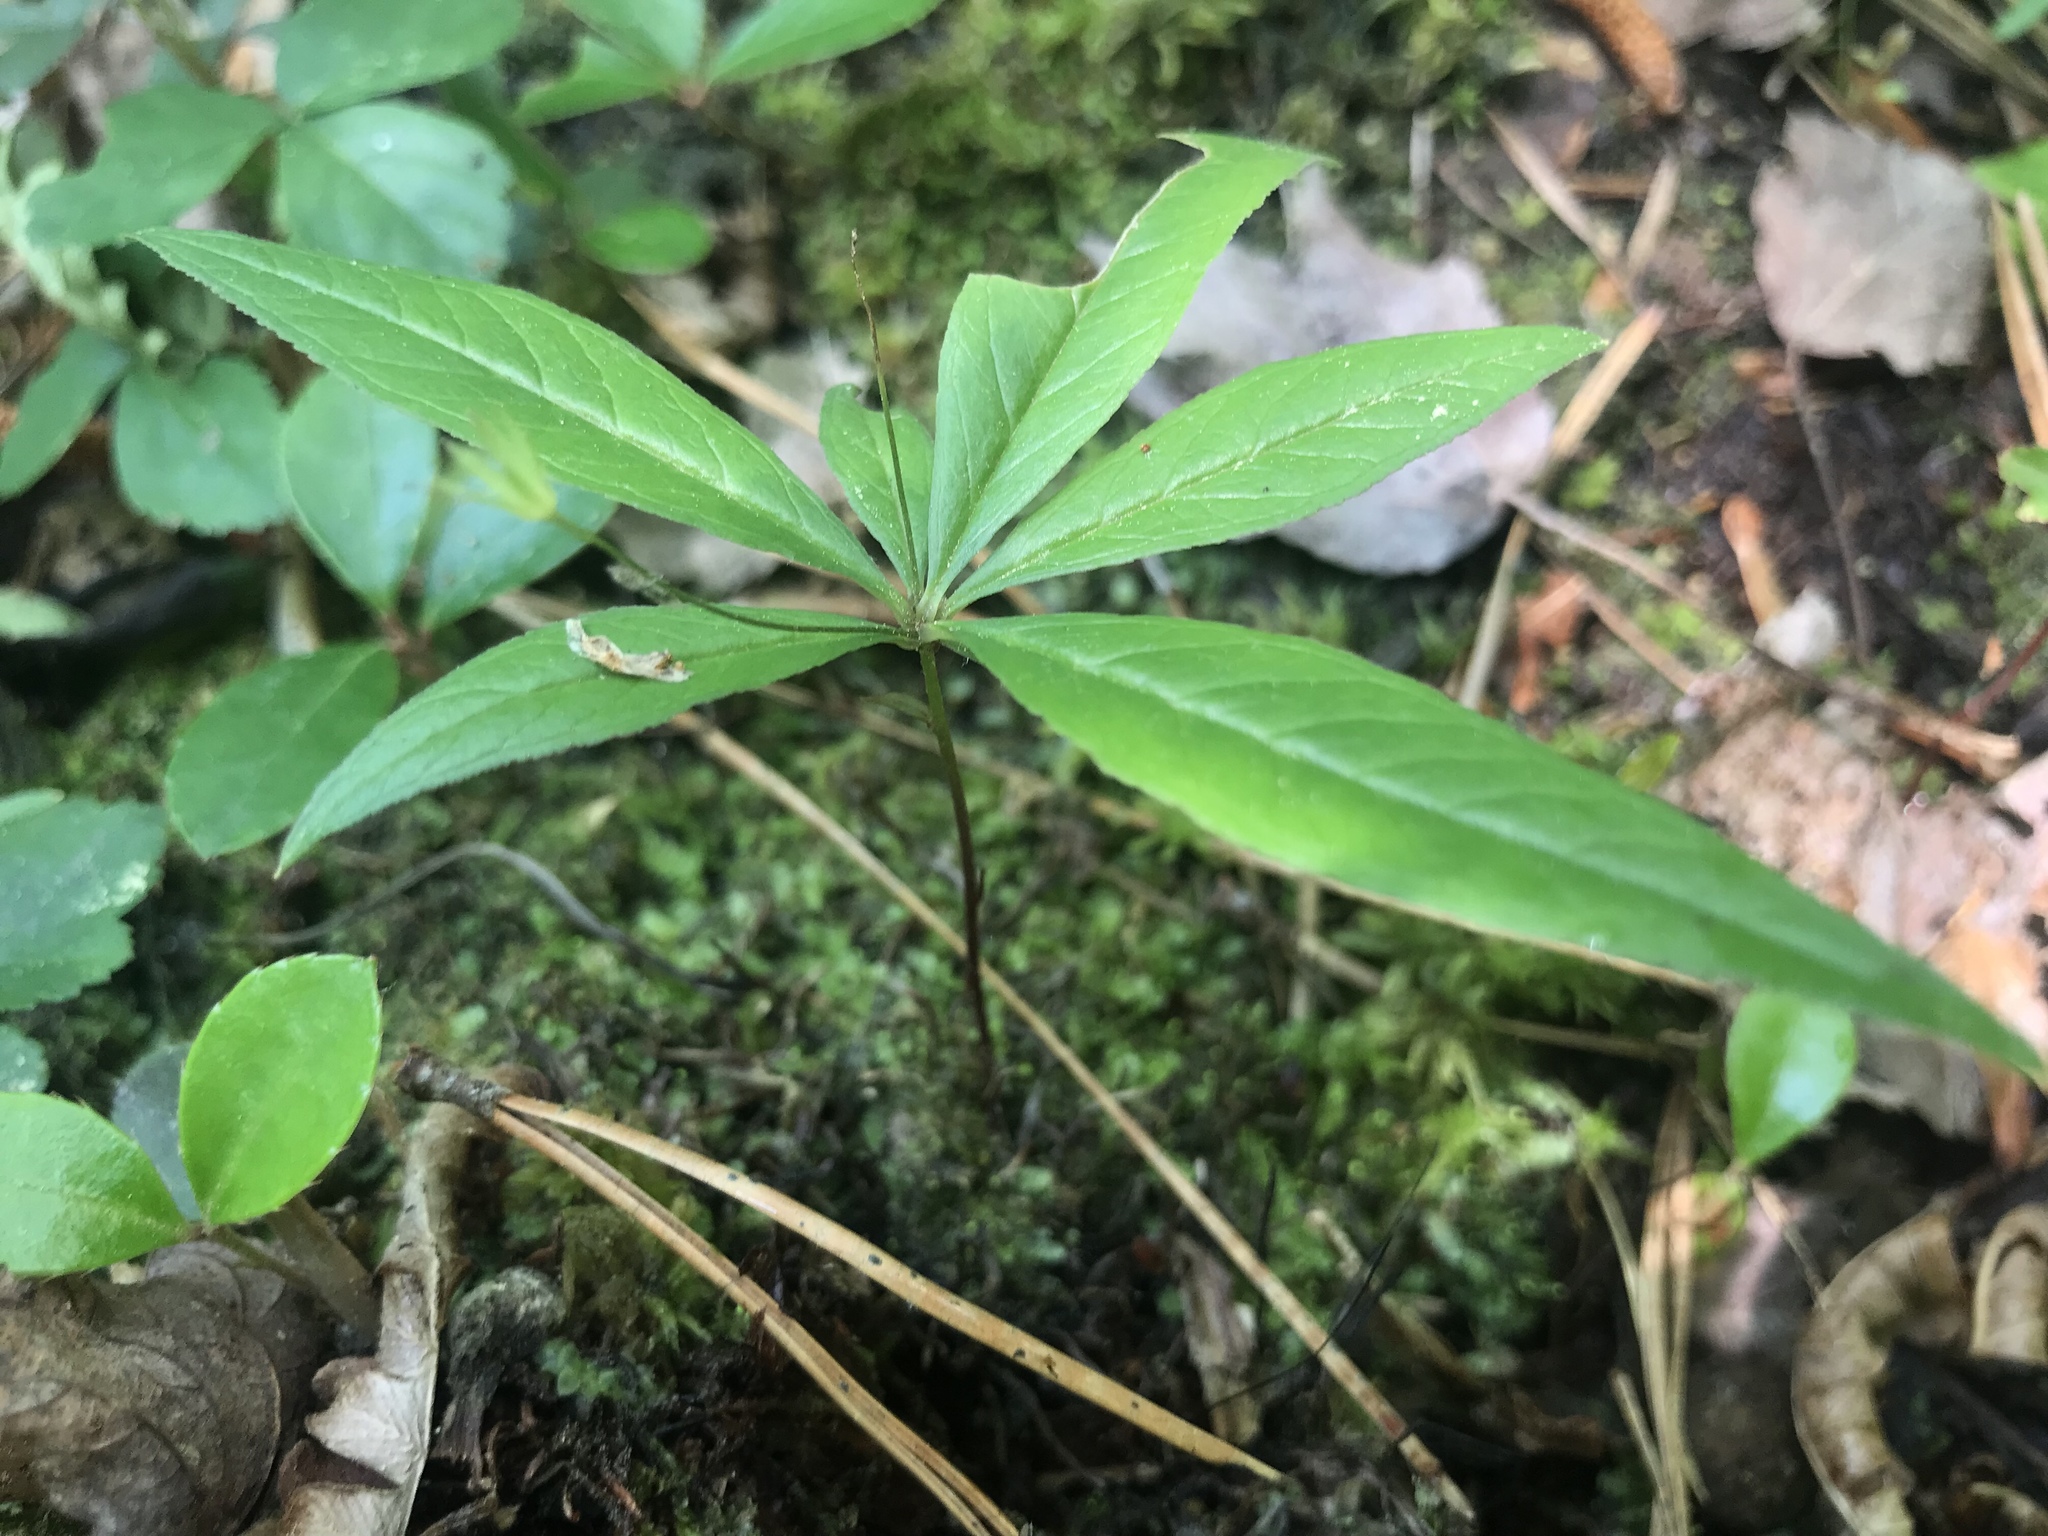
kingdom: Plantae
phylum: Tracheophyta
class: Magnoliopsida
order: Ericales
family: Primulaceae
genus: Lysimachia
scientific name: Lysimachia borealis
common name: American starflower
